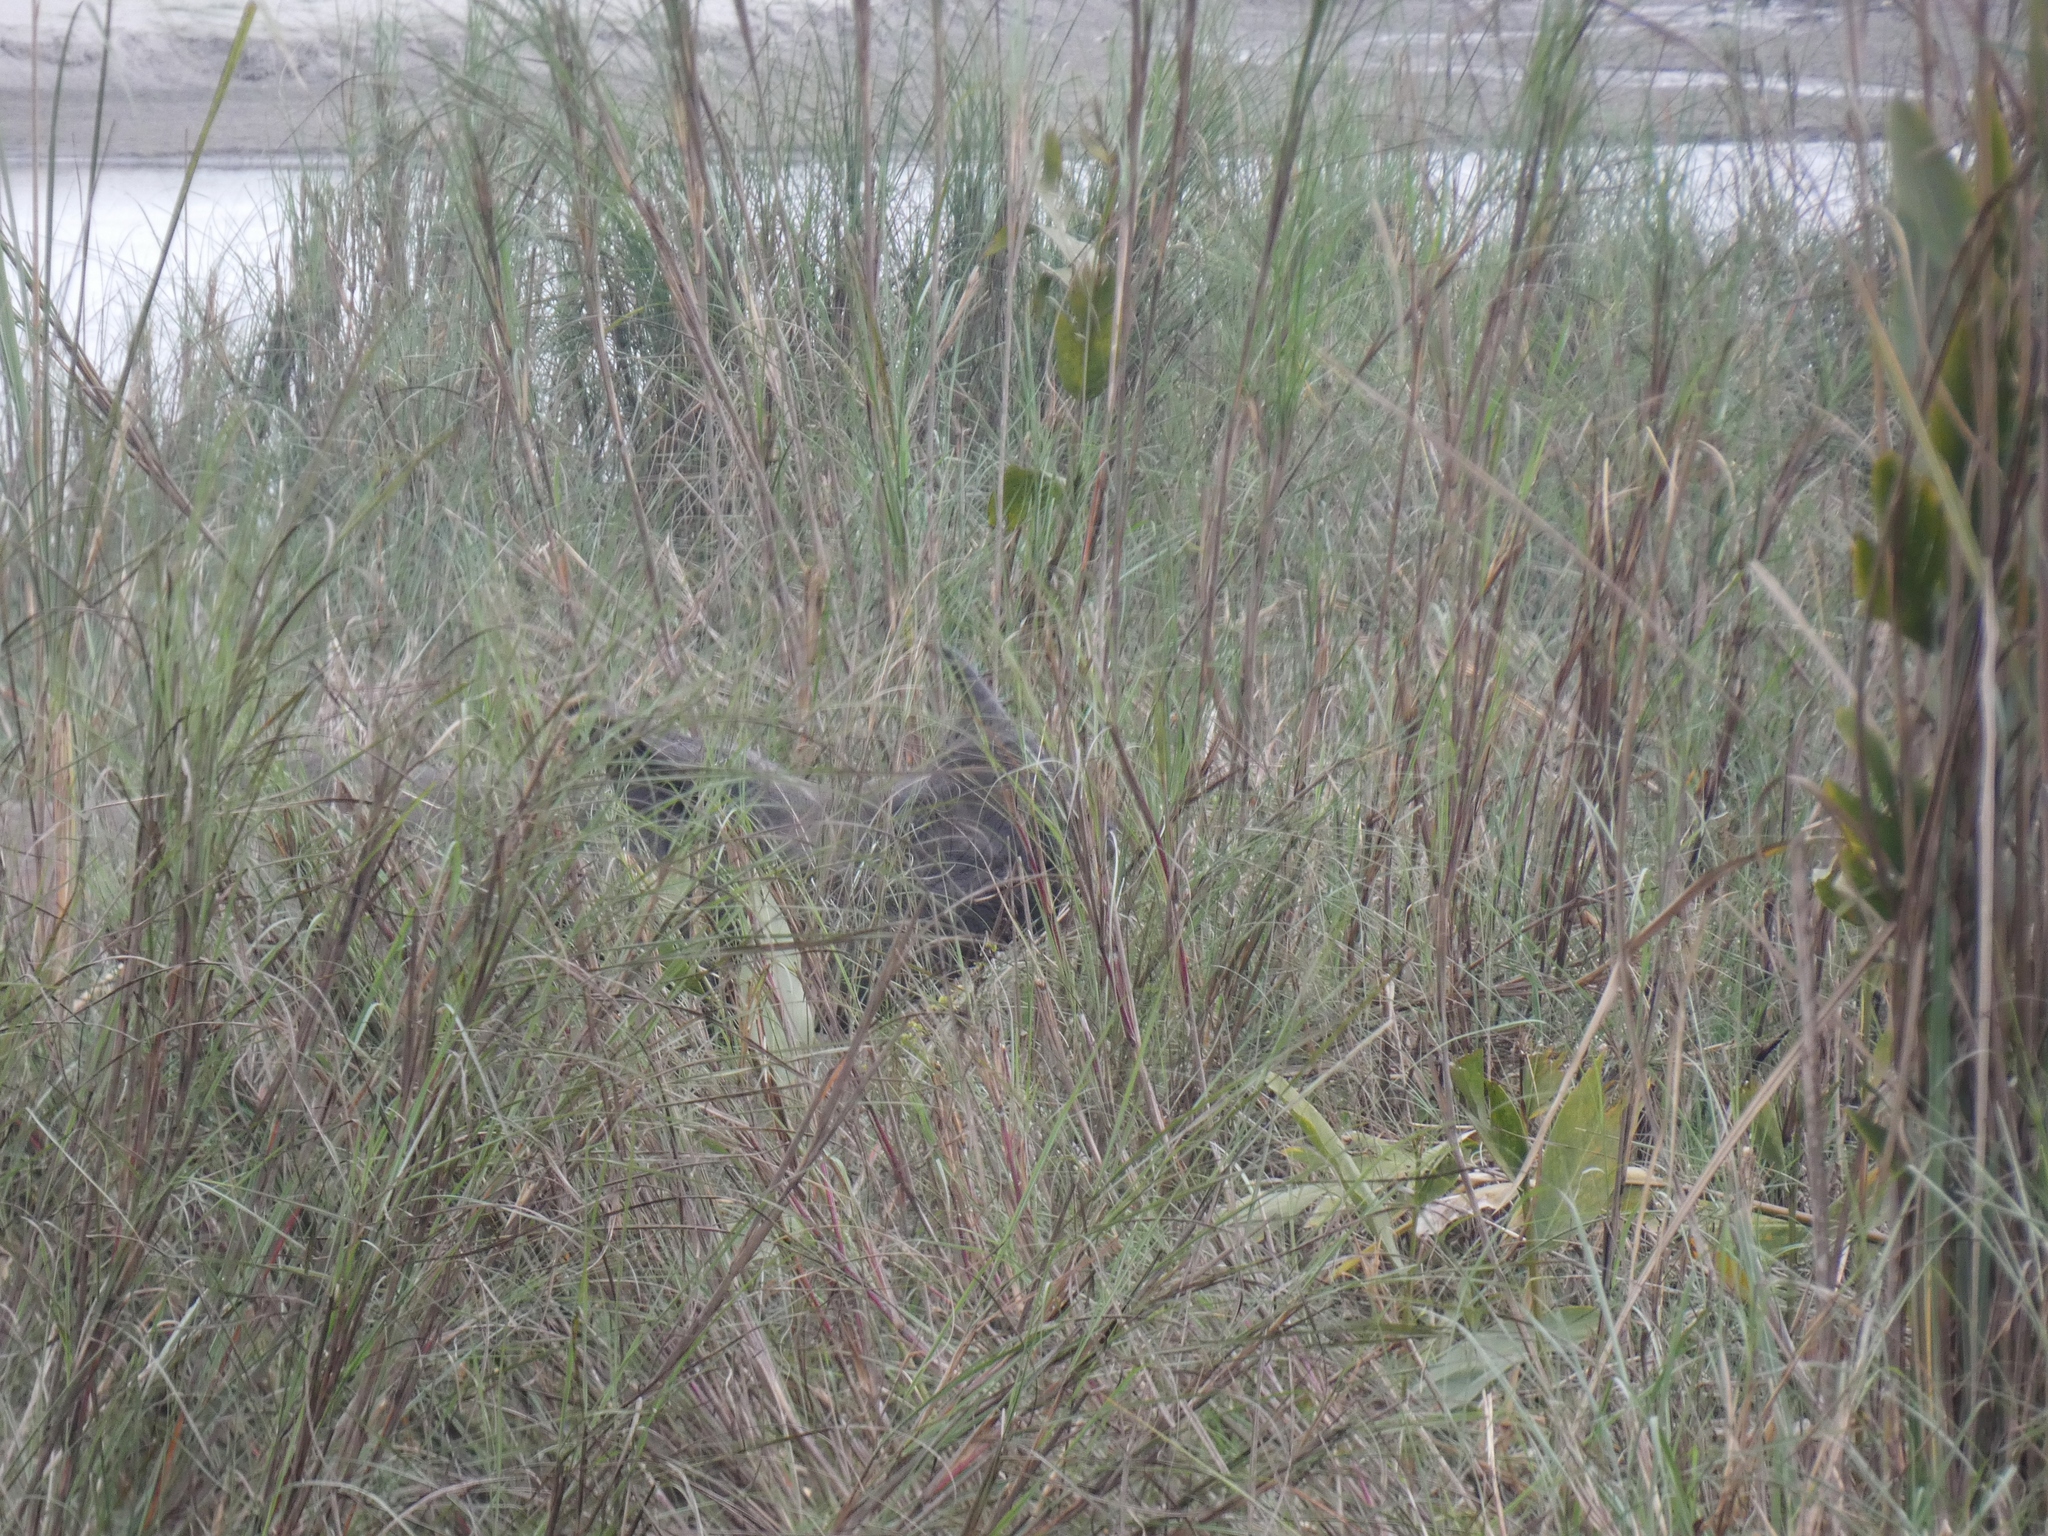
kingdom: Animalia
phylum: Chordata
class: Mammalia
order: Perissodactyla
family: Rhinocerotidae
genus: Rhinoceros
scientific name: Rhinoceros unicornis
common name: Indian rhinoceros
